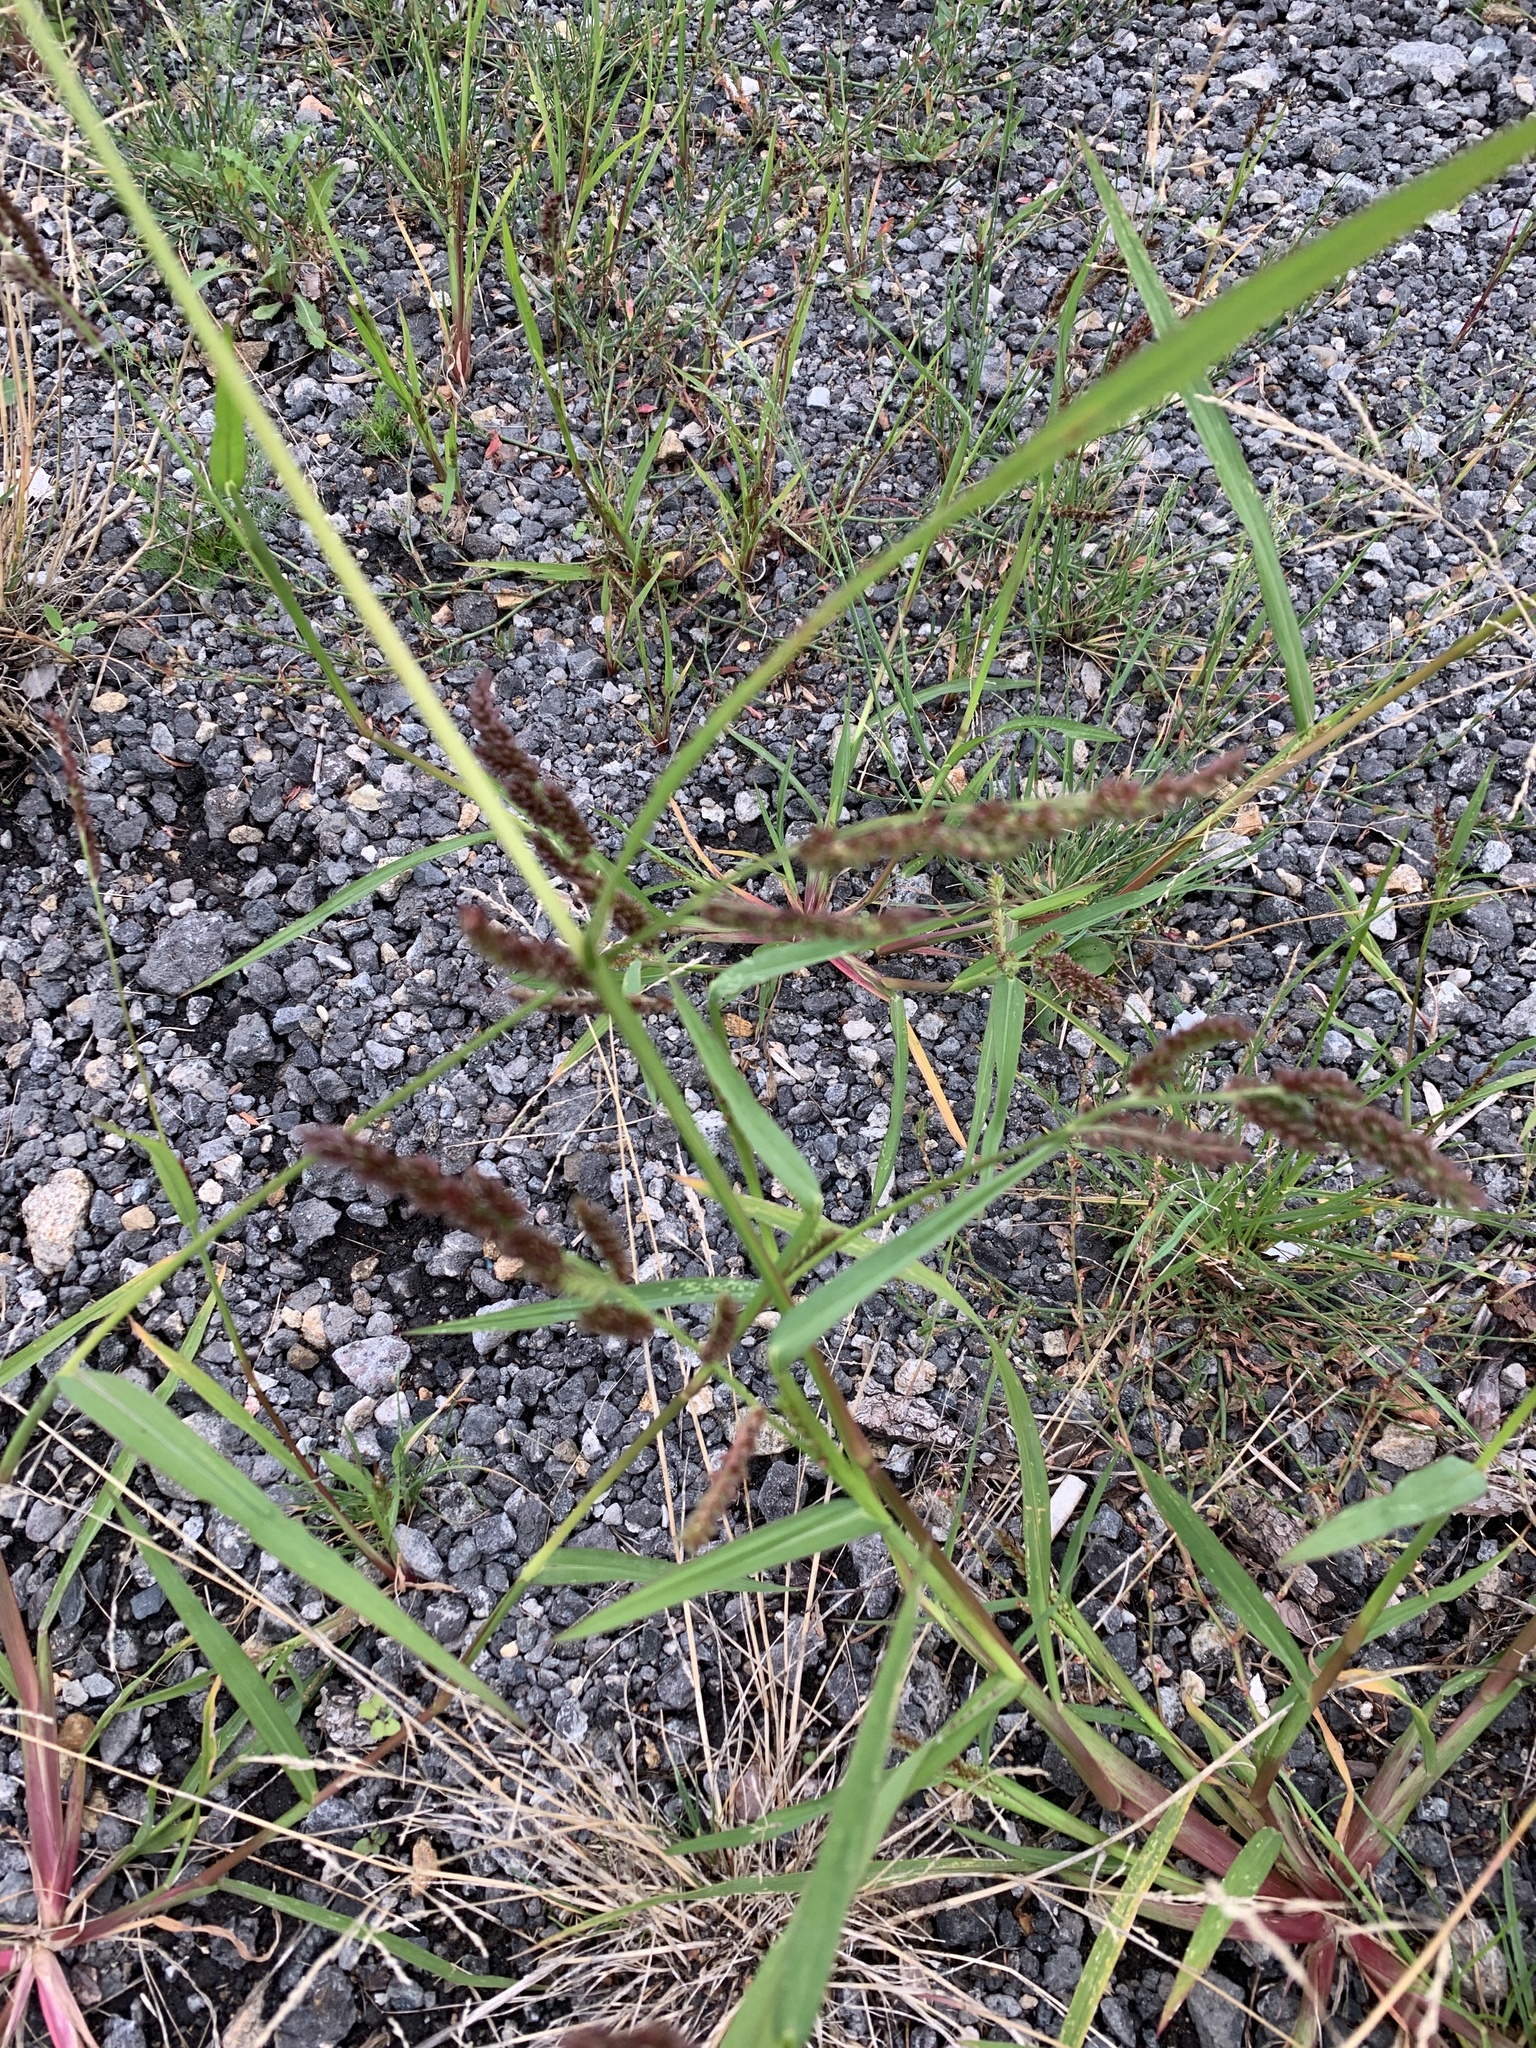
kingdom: Plantae
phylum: Tracheophyta
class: Liliopsida
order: Poales
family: Poaceae
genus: Echinochloa
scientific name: Echinochloa crus-galli
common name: Cockspur
